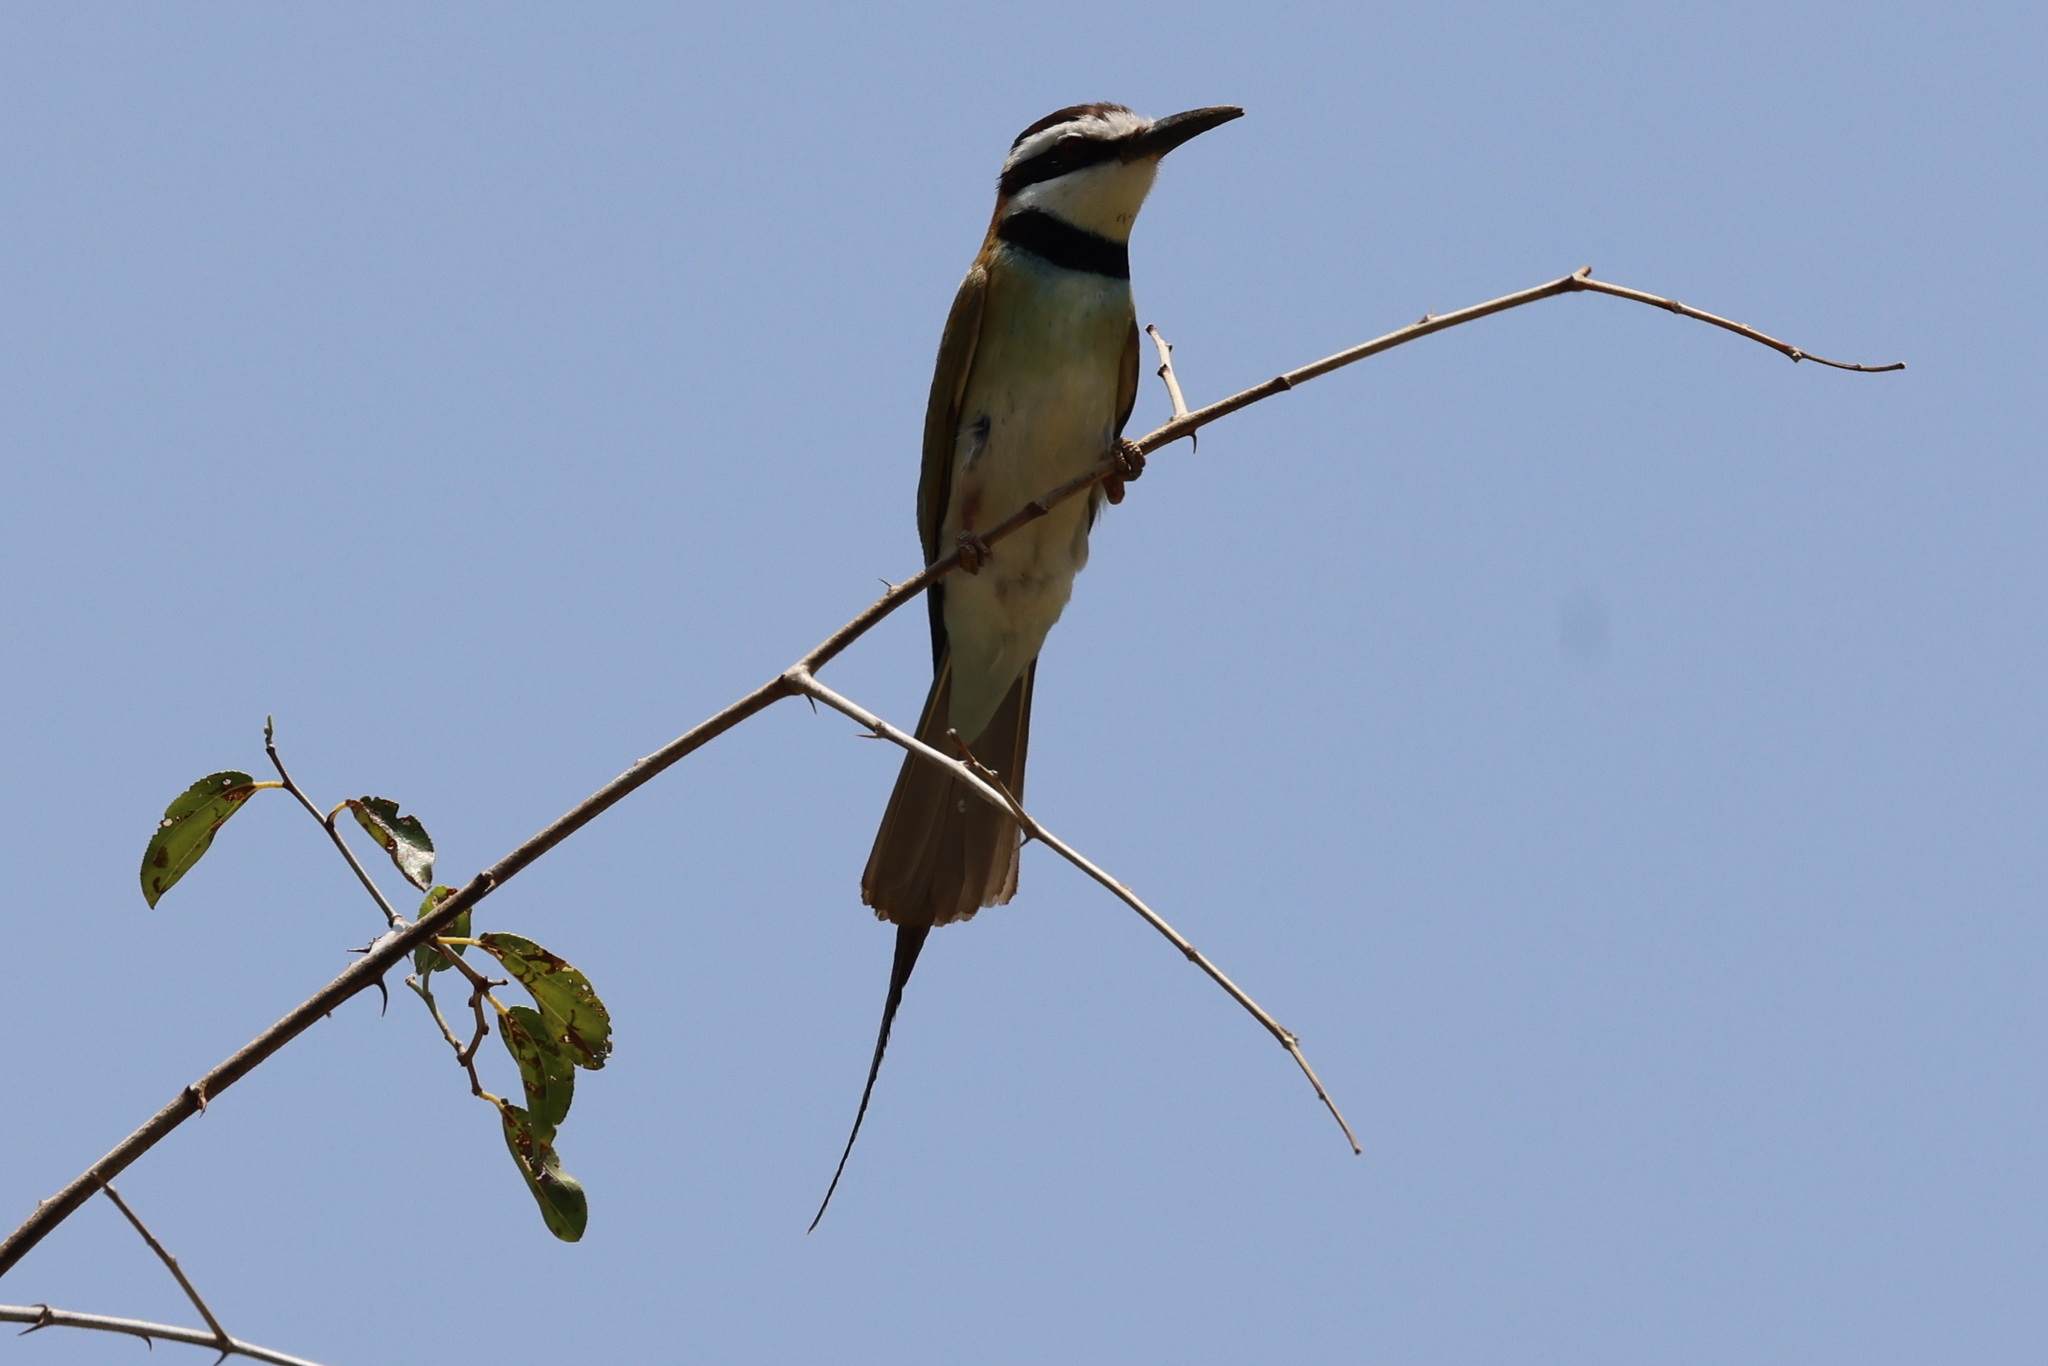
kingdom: Animalia
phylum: Chordata
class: Aves
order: Coraciiformes
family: Meropidae
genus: Merops
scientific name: Merops albicollis
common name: White-throated bee-eater
